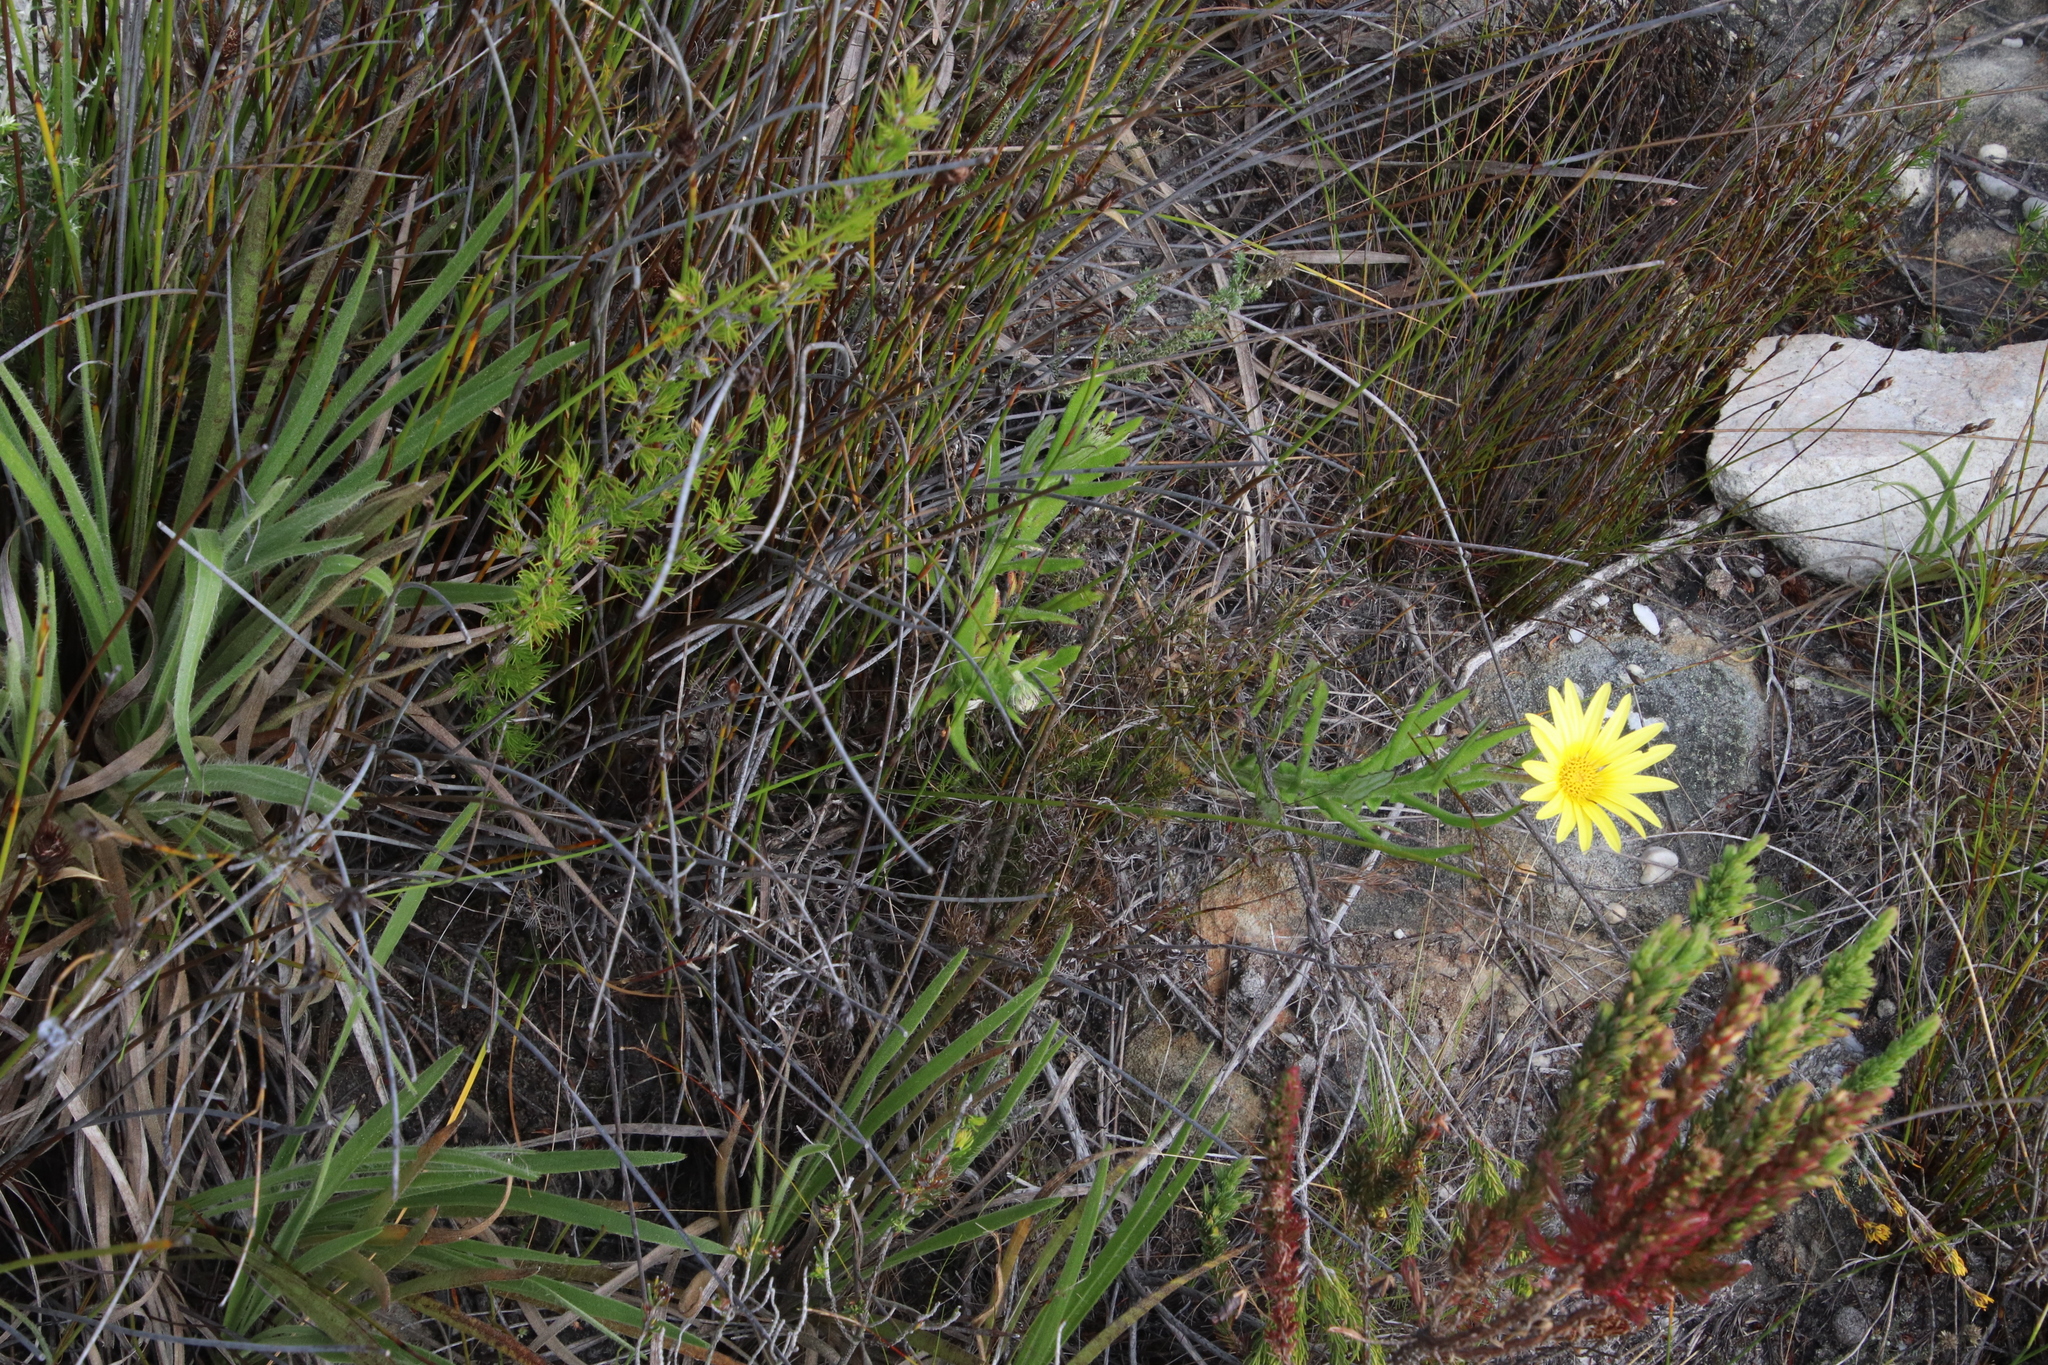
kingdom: Plantae
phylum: Tracheophyta
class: Magnoliopsida
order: Asterales
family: Asteraceae
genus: Osteospermum
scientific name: Osteospermum ilicifolium
